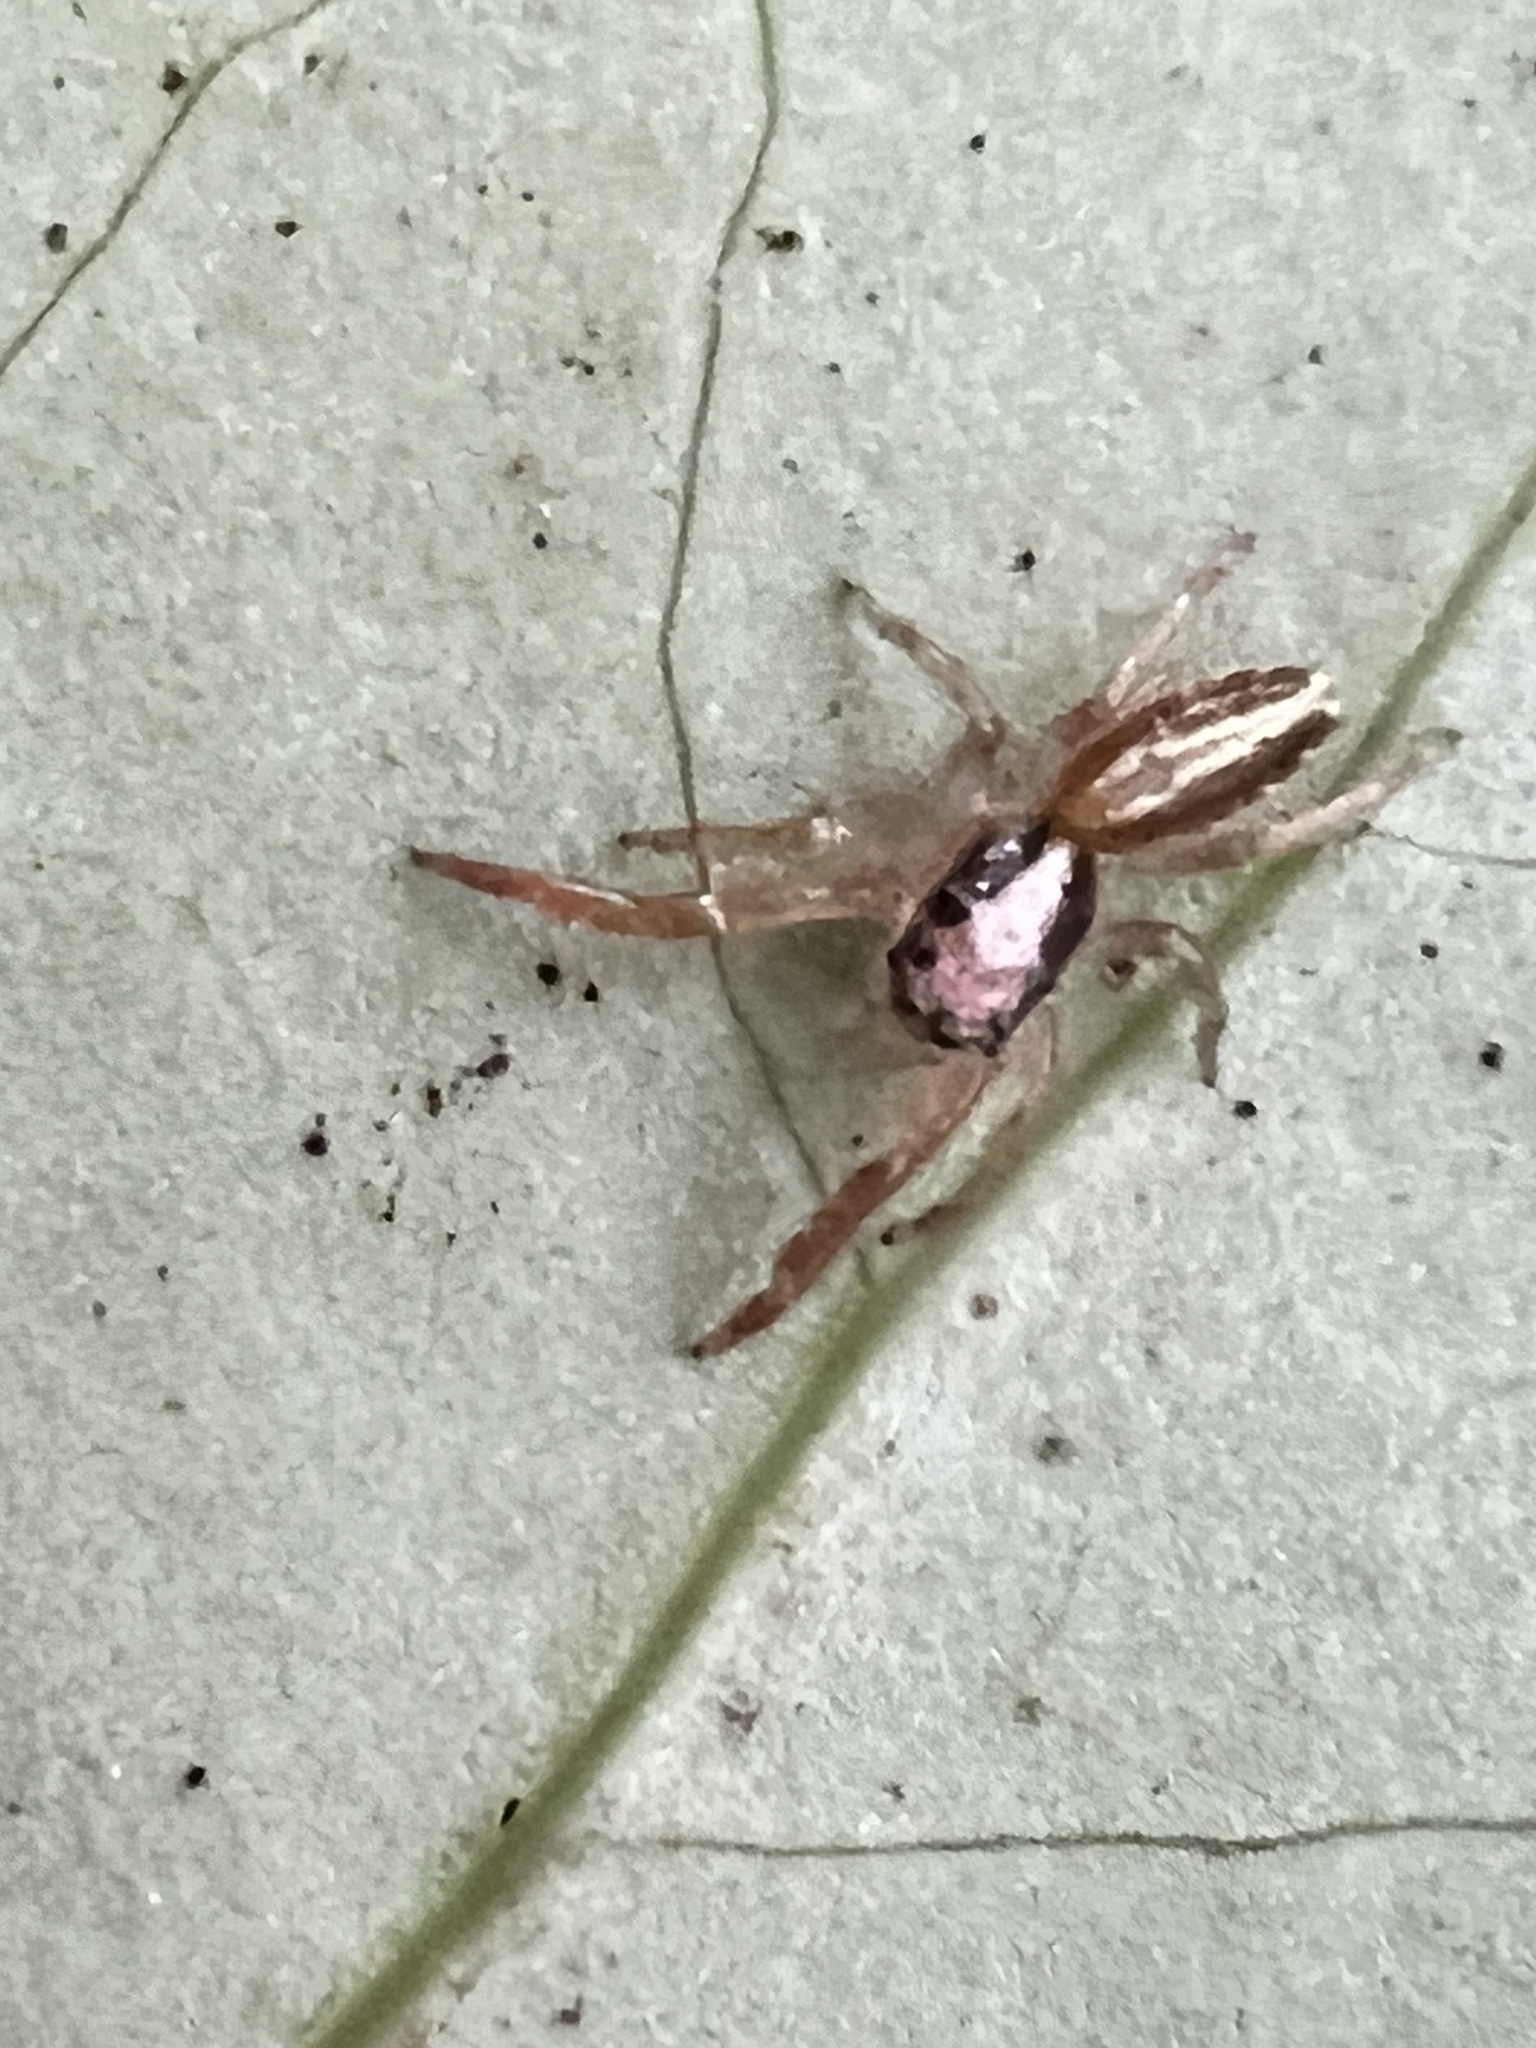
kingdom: Animalia
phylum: Arthropoda
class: Arachnida
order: Araneae
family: Salticidae
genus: Trite
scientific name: Trite planiceps
